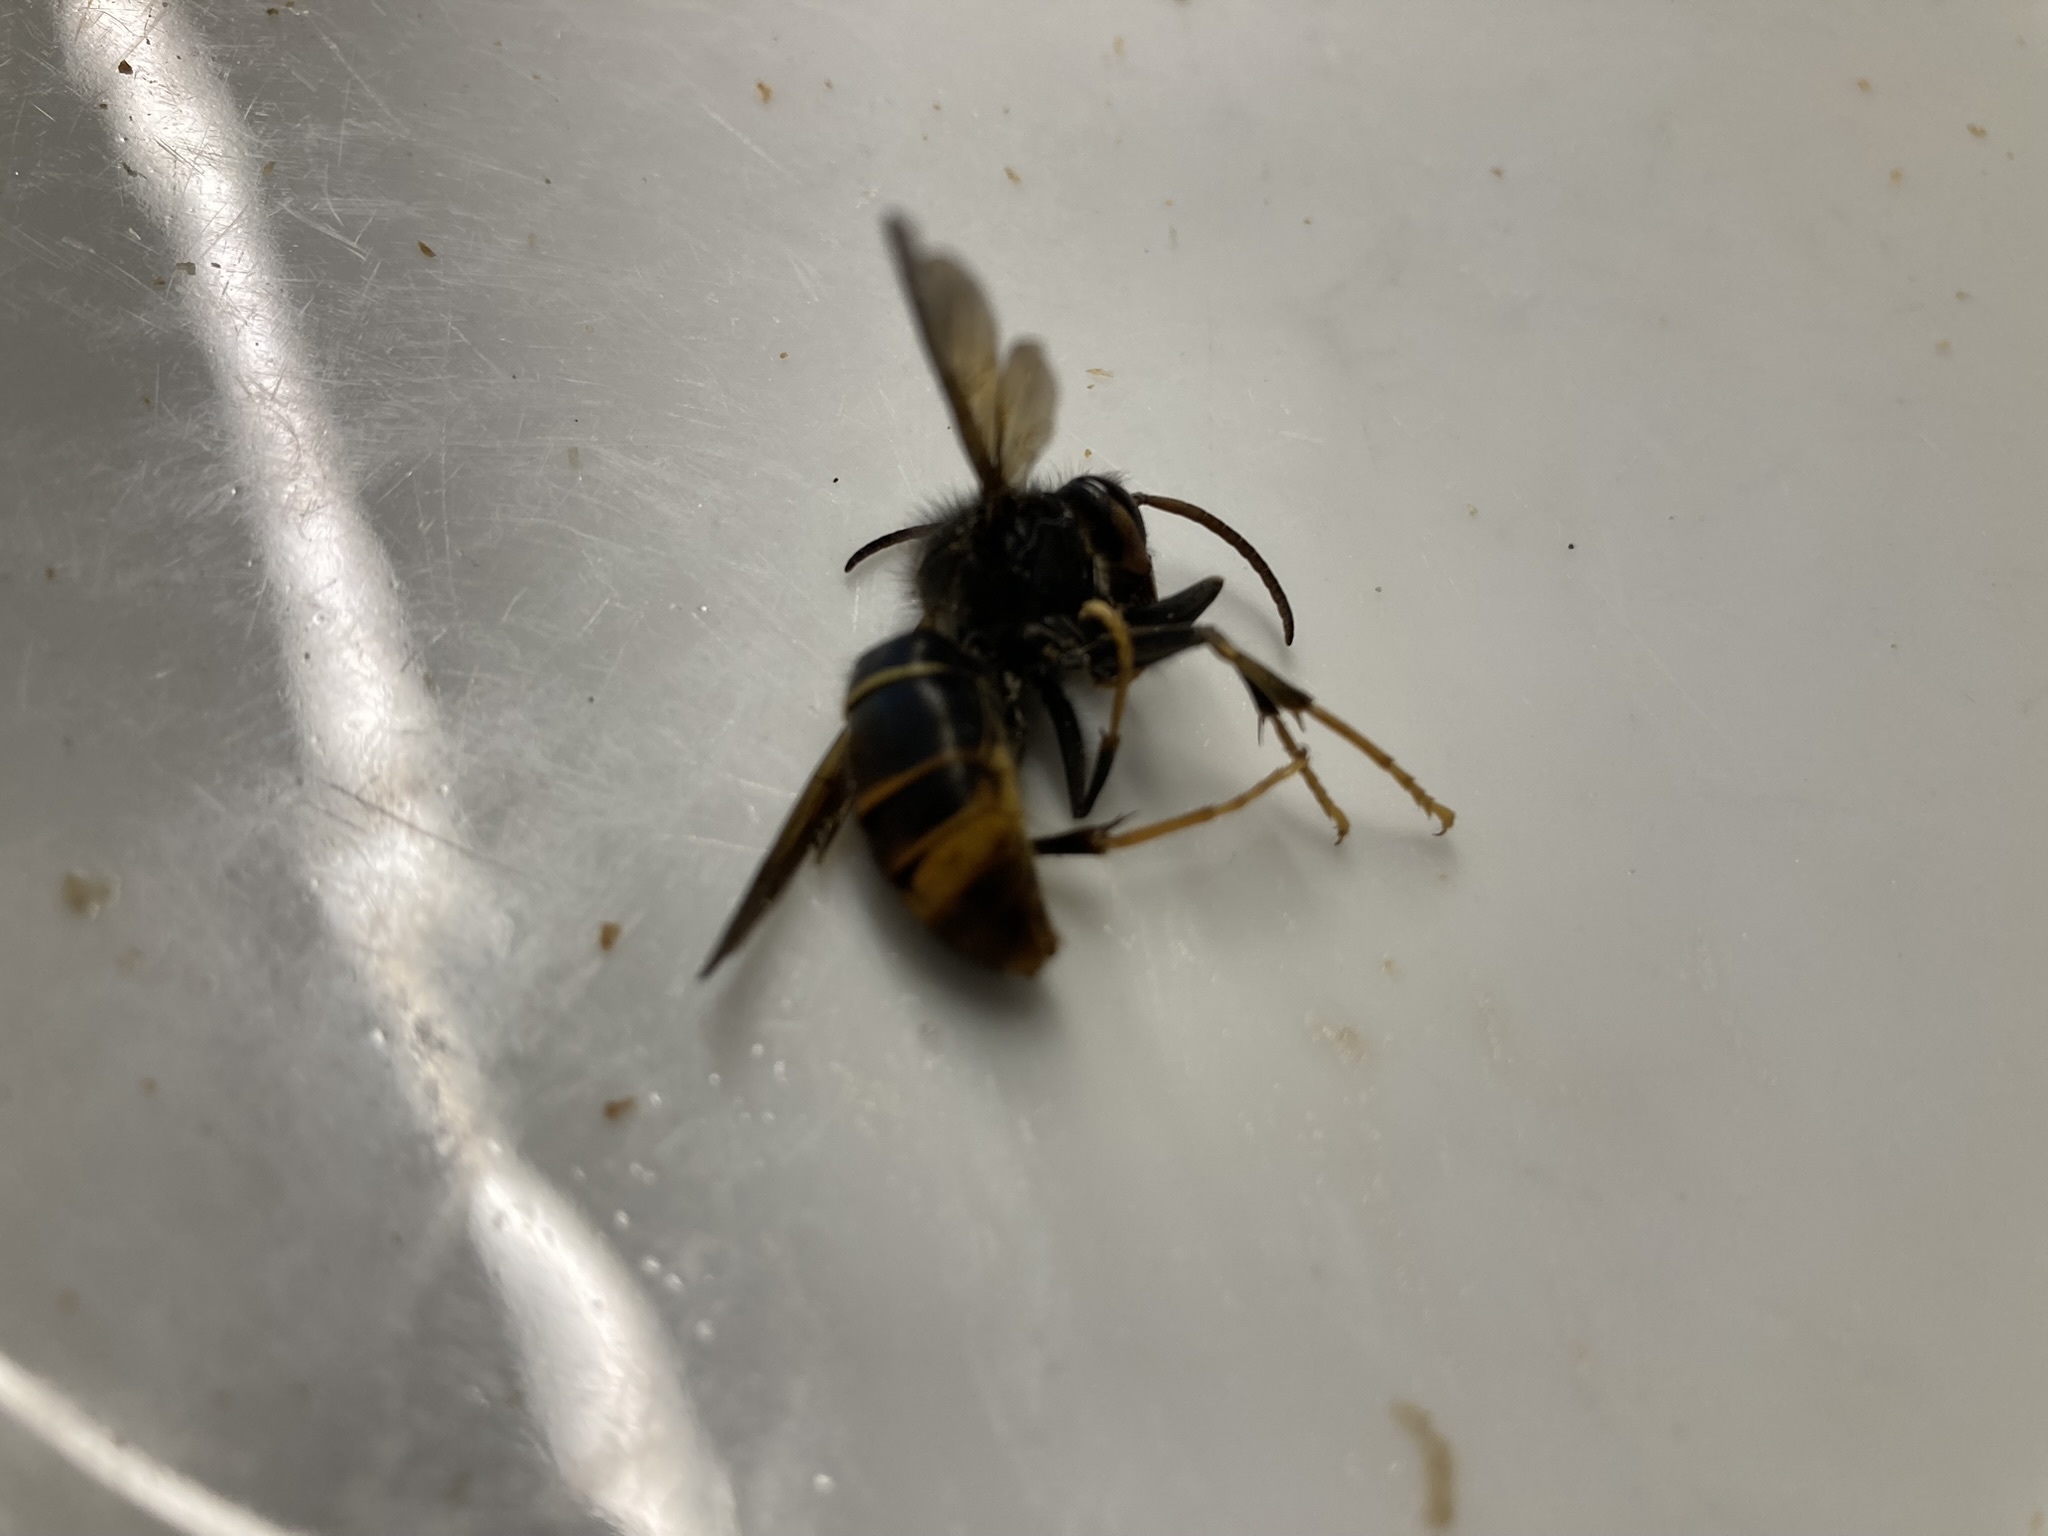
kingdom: Animalia
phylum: Arthropoda
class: Insecta
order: Hymenoptera
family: Vespidae
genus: Vespa
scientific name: Vespa velutina
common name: Asian hornet
